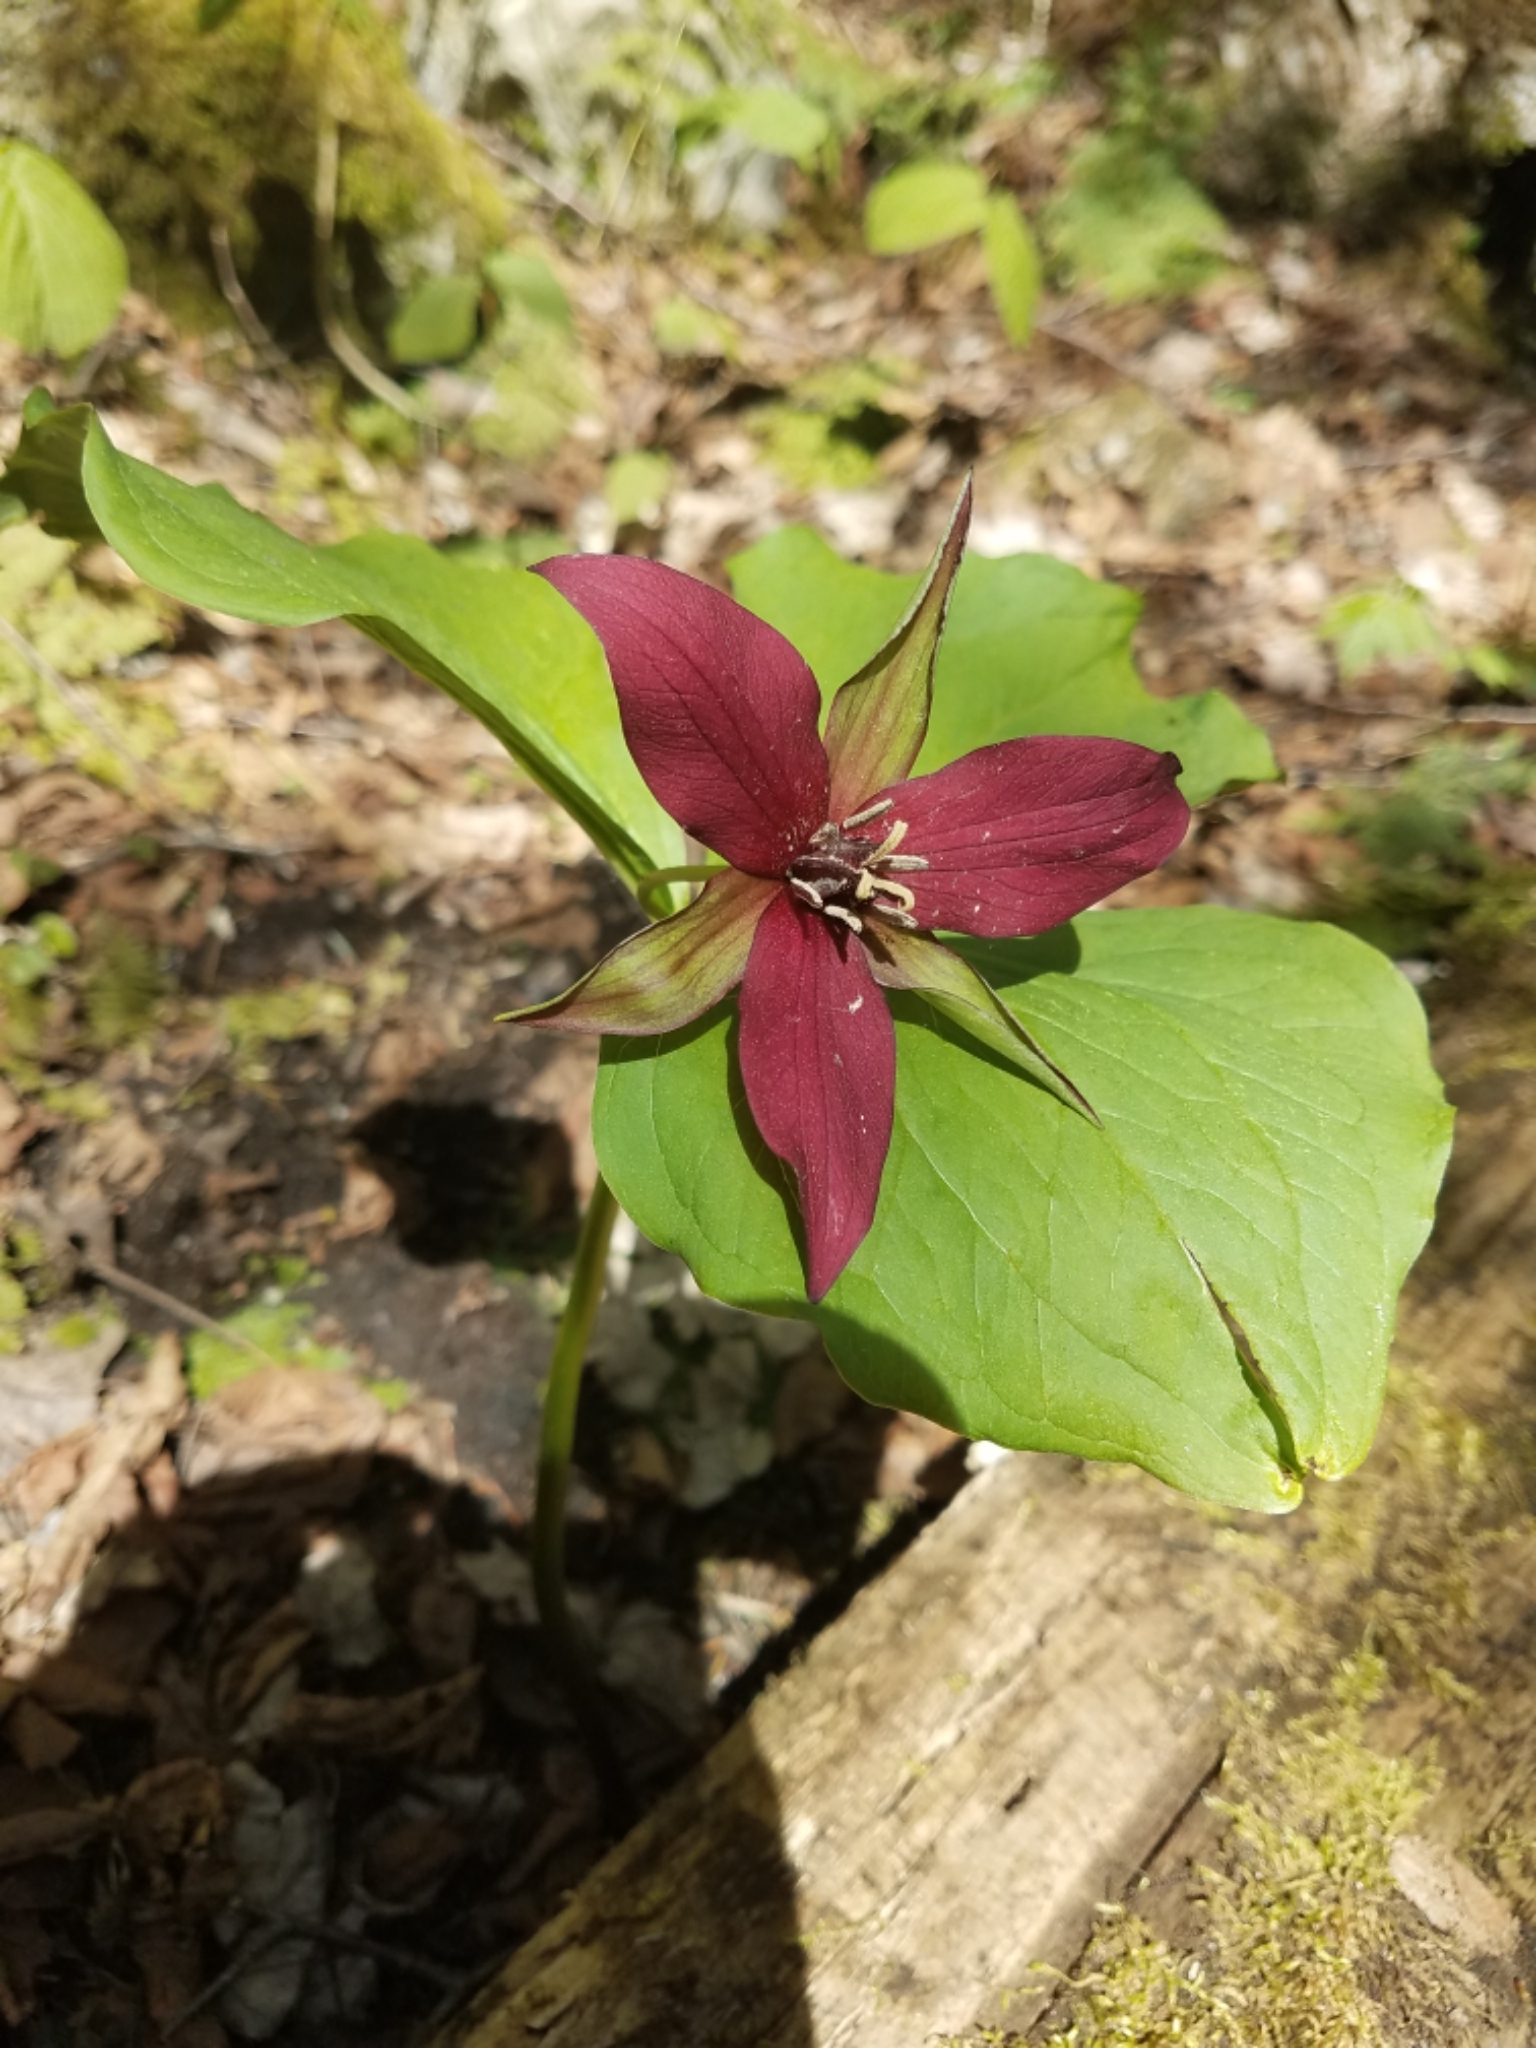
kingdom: Plantae
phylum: Tracheophyta
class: Liliopsida
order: Liliales
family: Melanthiaceae
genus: Trillium
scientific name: Trillium erectum
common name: Purple trillium
